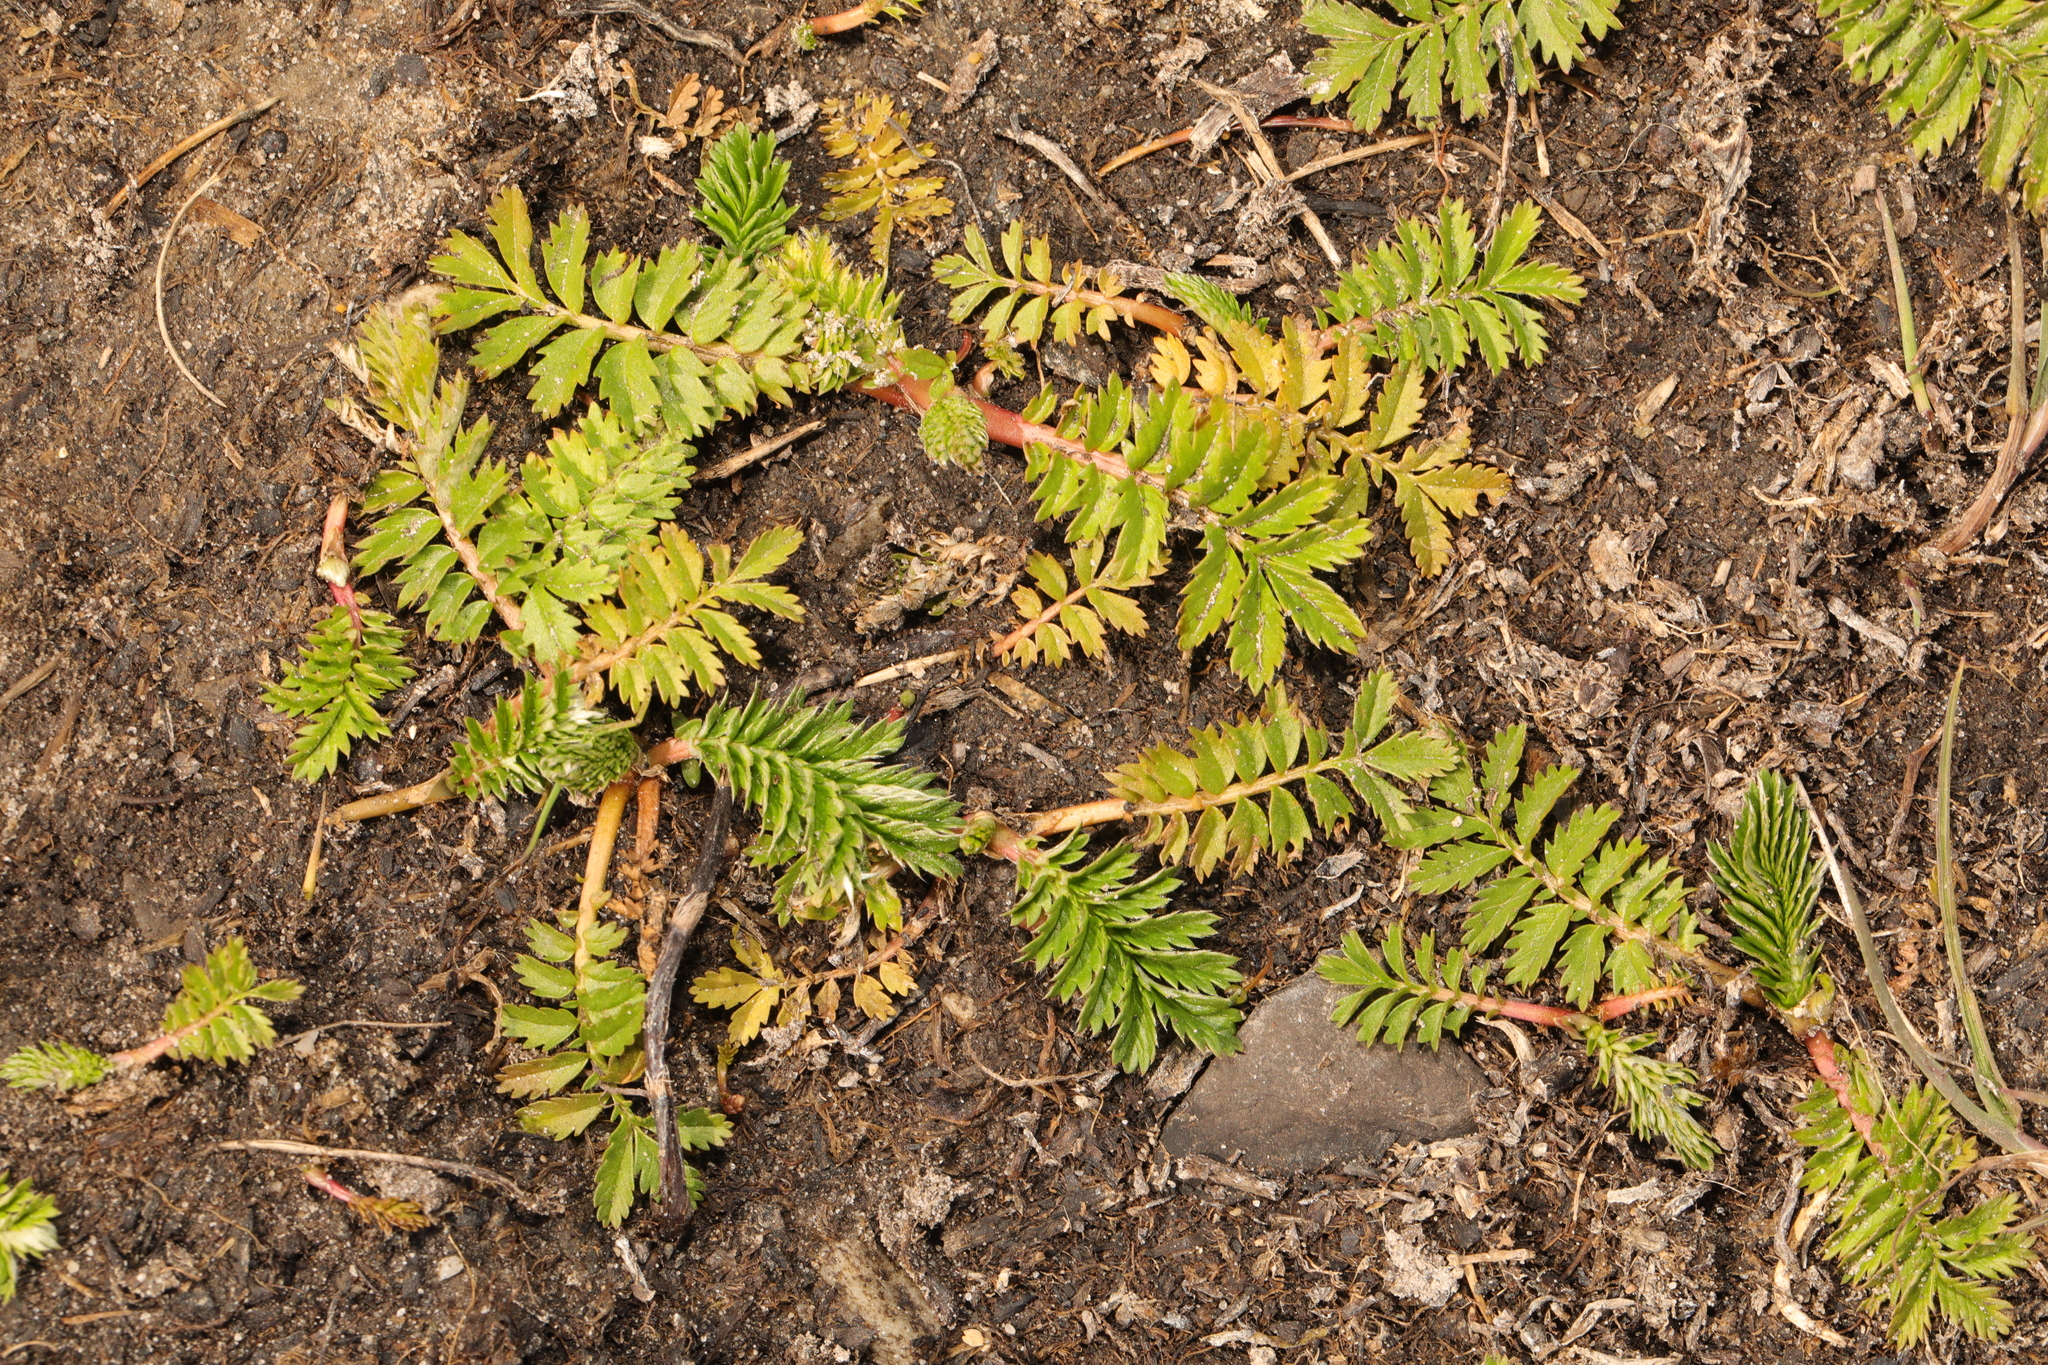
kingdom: Plantae
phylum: Tracheophyta
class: Magnoliopsida
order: Rosales
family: Rosaceae
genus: Argentina
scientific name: Argentina anserina
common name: Common silverweed
